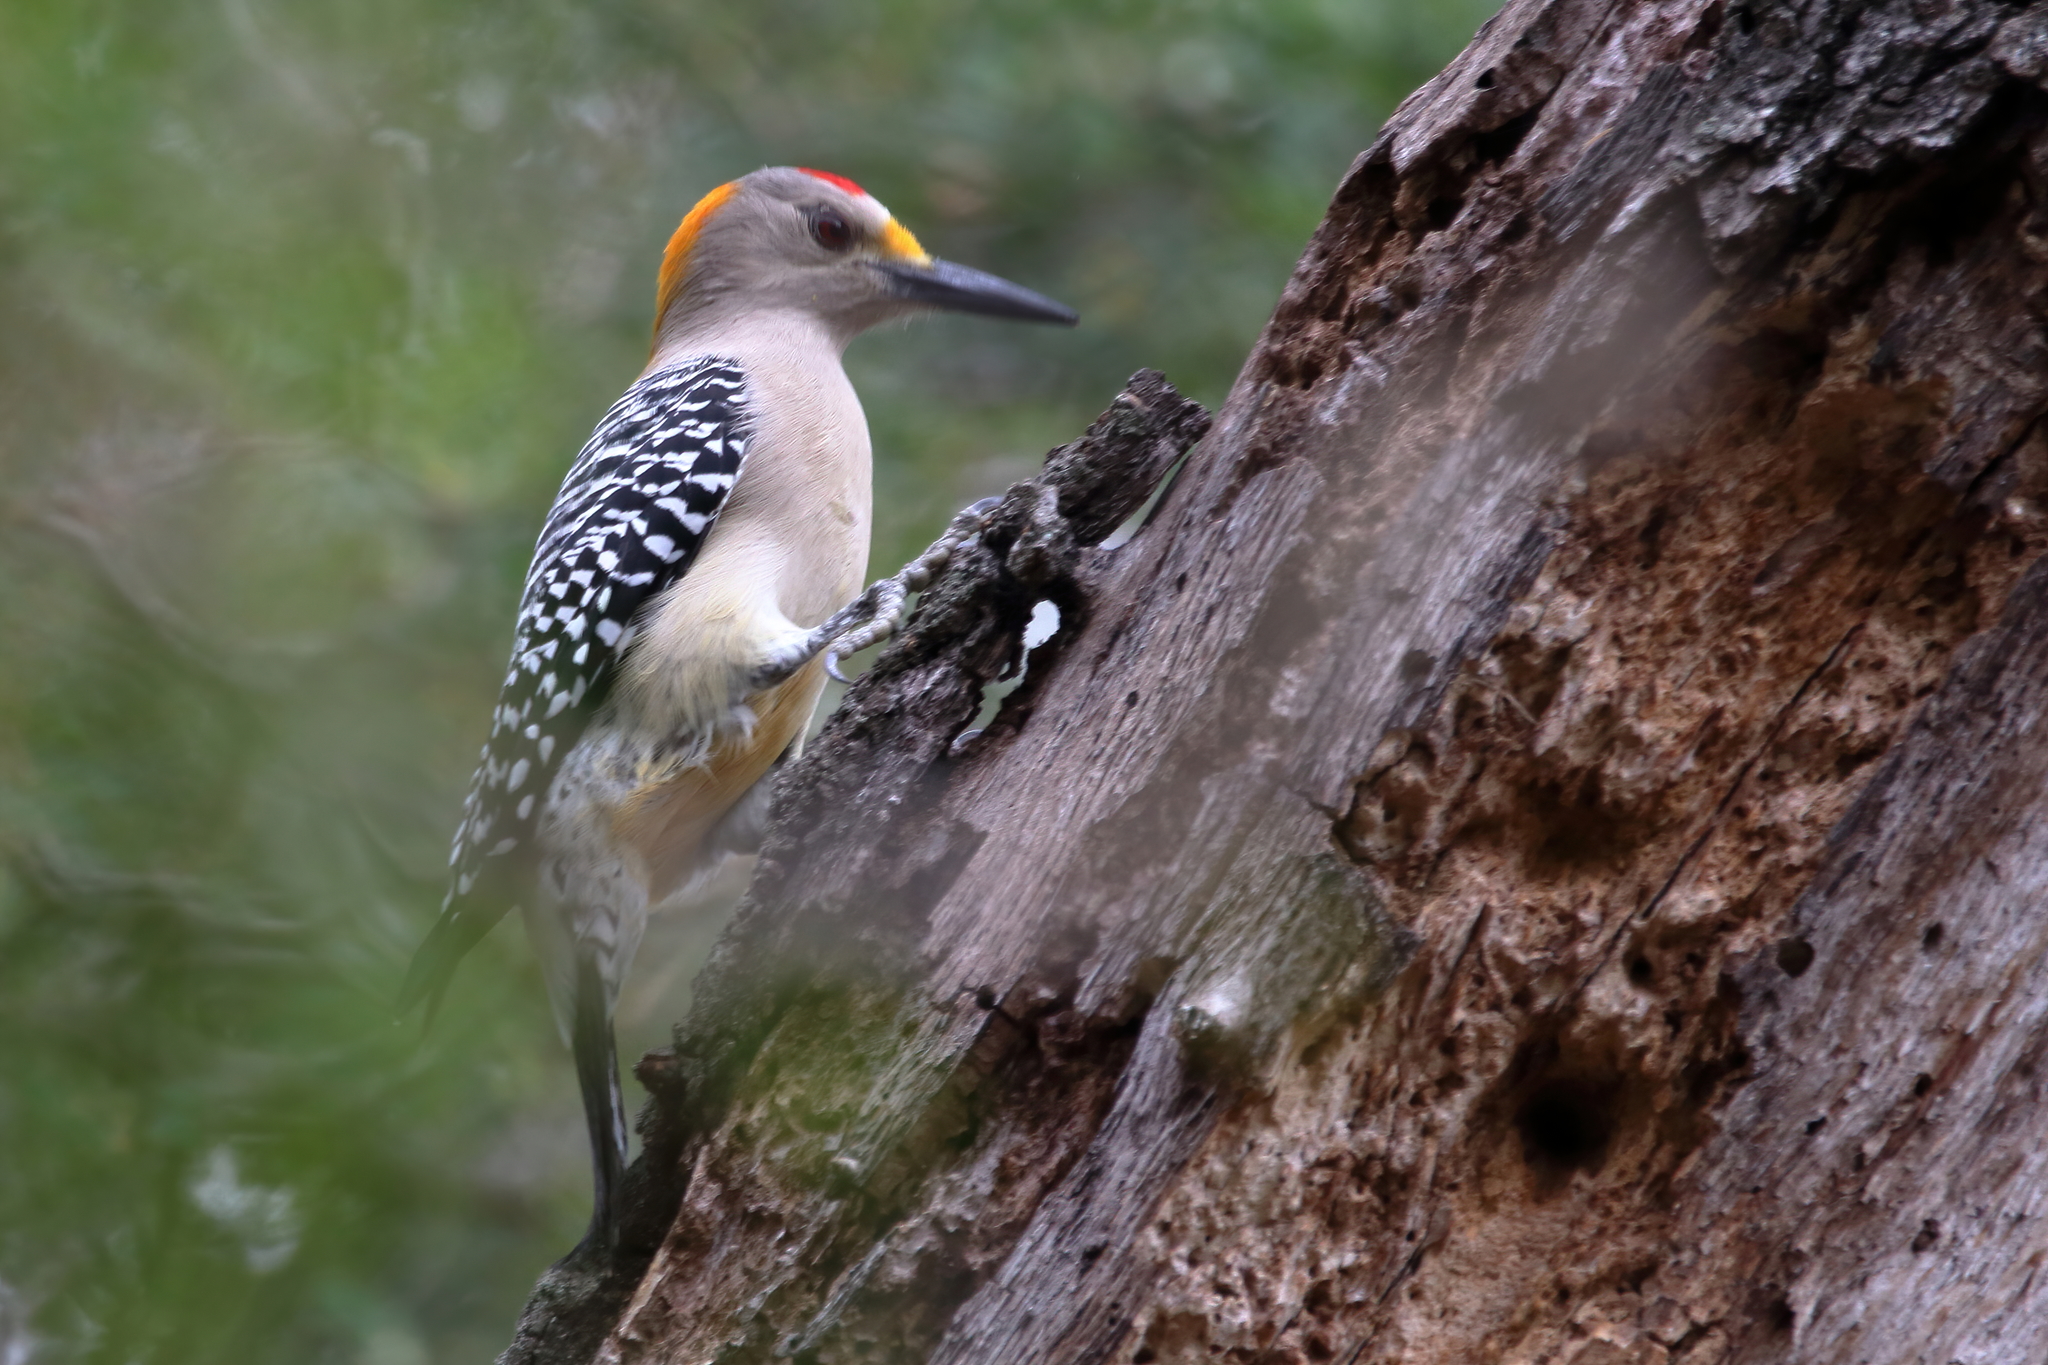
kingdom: Animalia
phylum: Chordata
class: Aves
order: Piciformes
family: Picidae
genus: Melanerpes
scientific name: Melanerpes aurifrons
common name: Golden-fronted woodpecker
